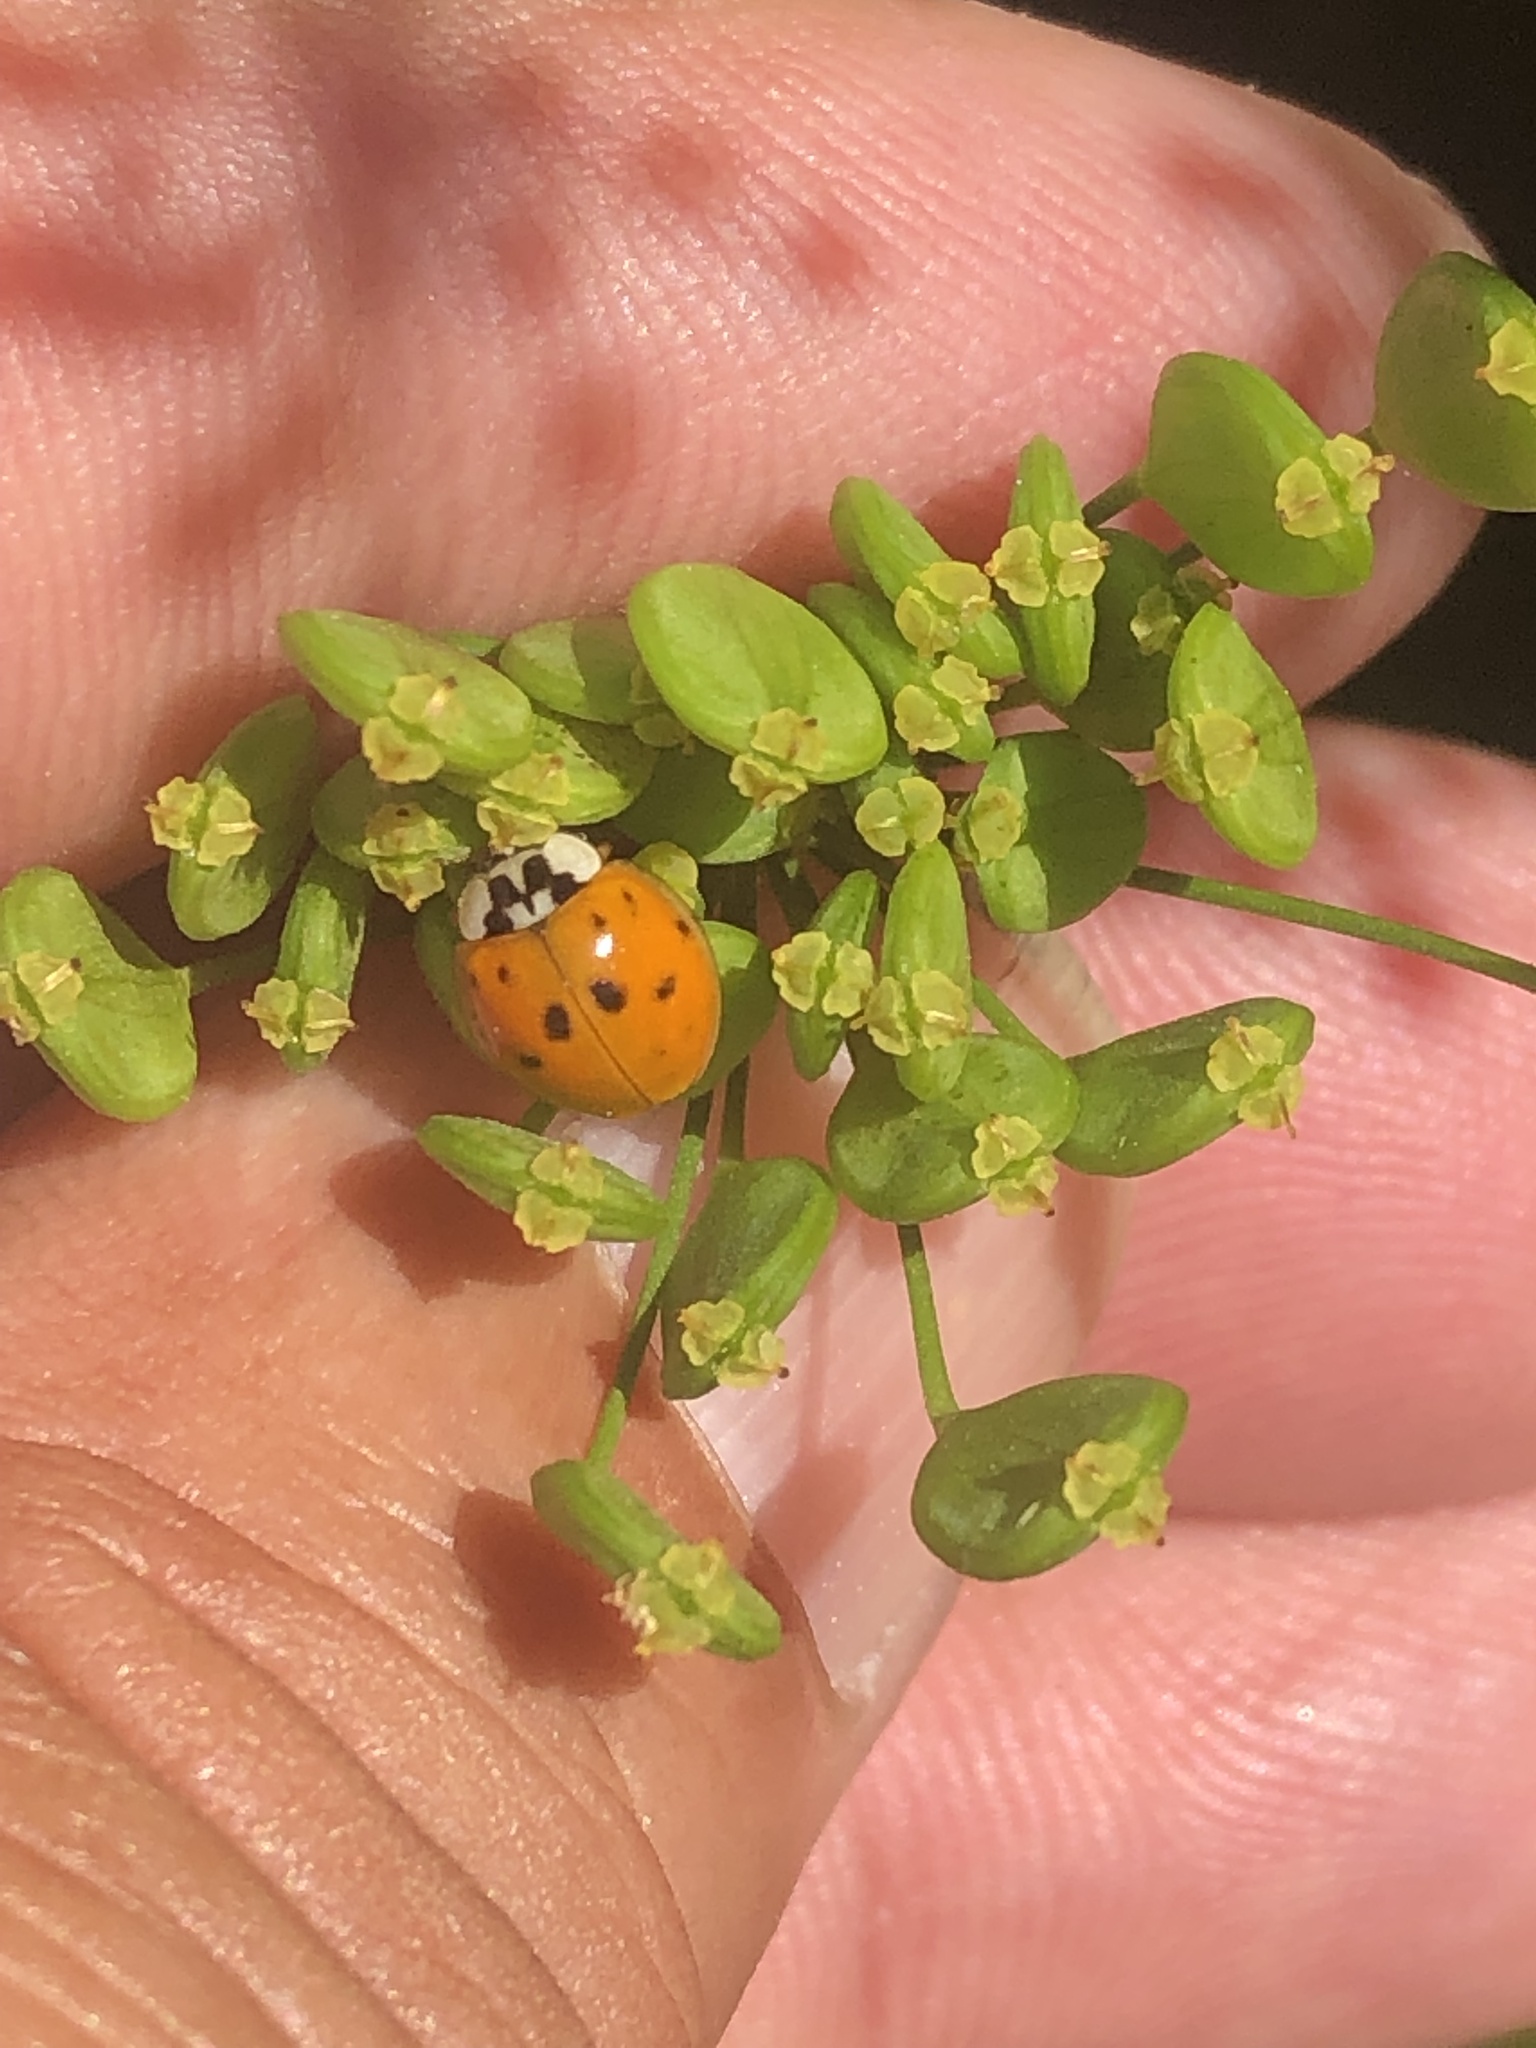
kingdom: Animalia
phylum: Arthropoda
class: Insecta
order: Coleoptera
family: Coccinellidae
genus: Harmonia
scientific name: Harmonia axyridis
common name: Harlequin ladybird
